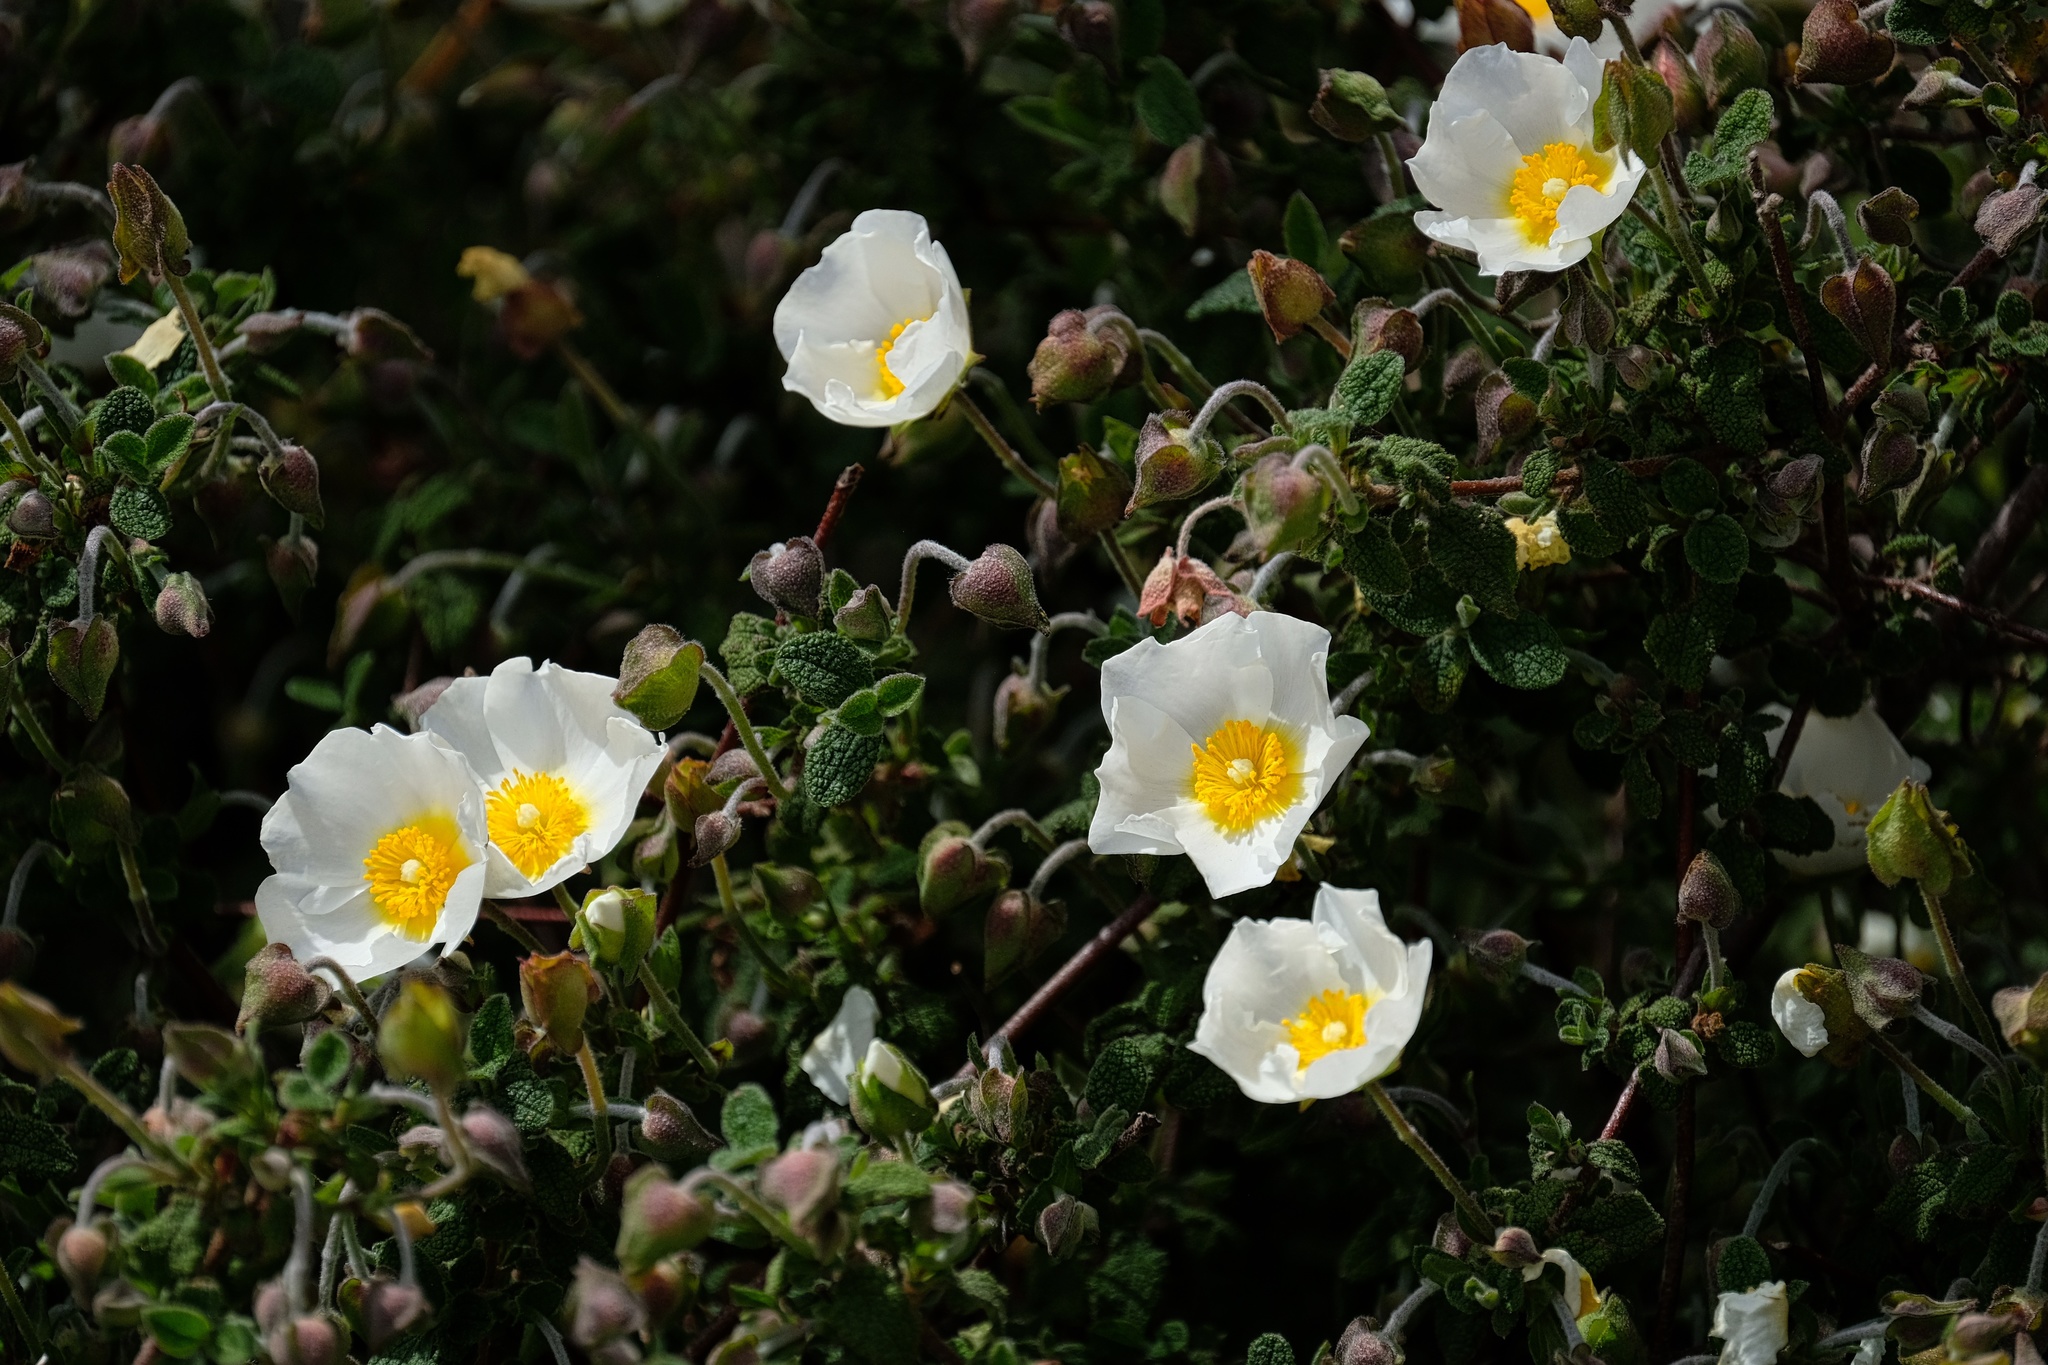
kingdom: Plantae
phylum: Tracheophyta
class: Magnoliopsida
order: Malvales
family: Cistaceae
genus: Cistus
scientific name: Cistus salviifolius
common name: Salvia cistus
